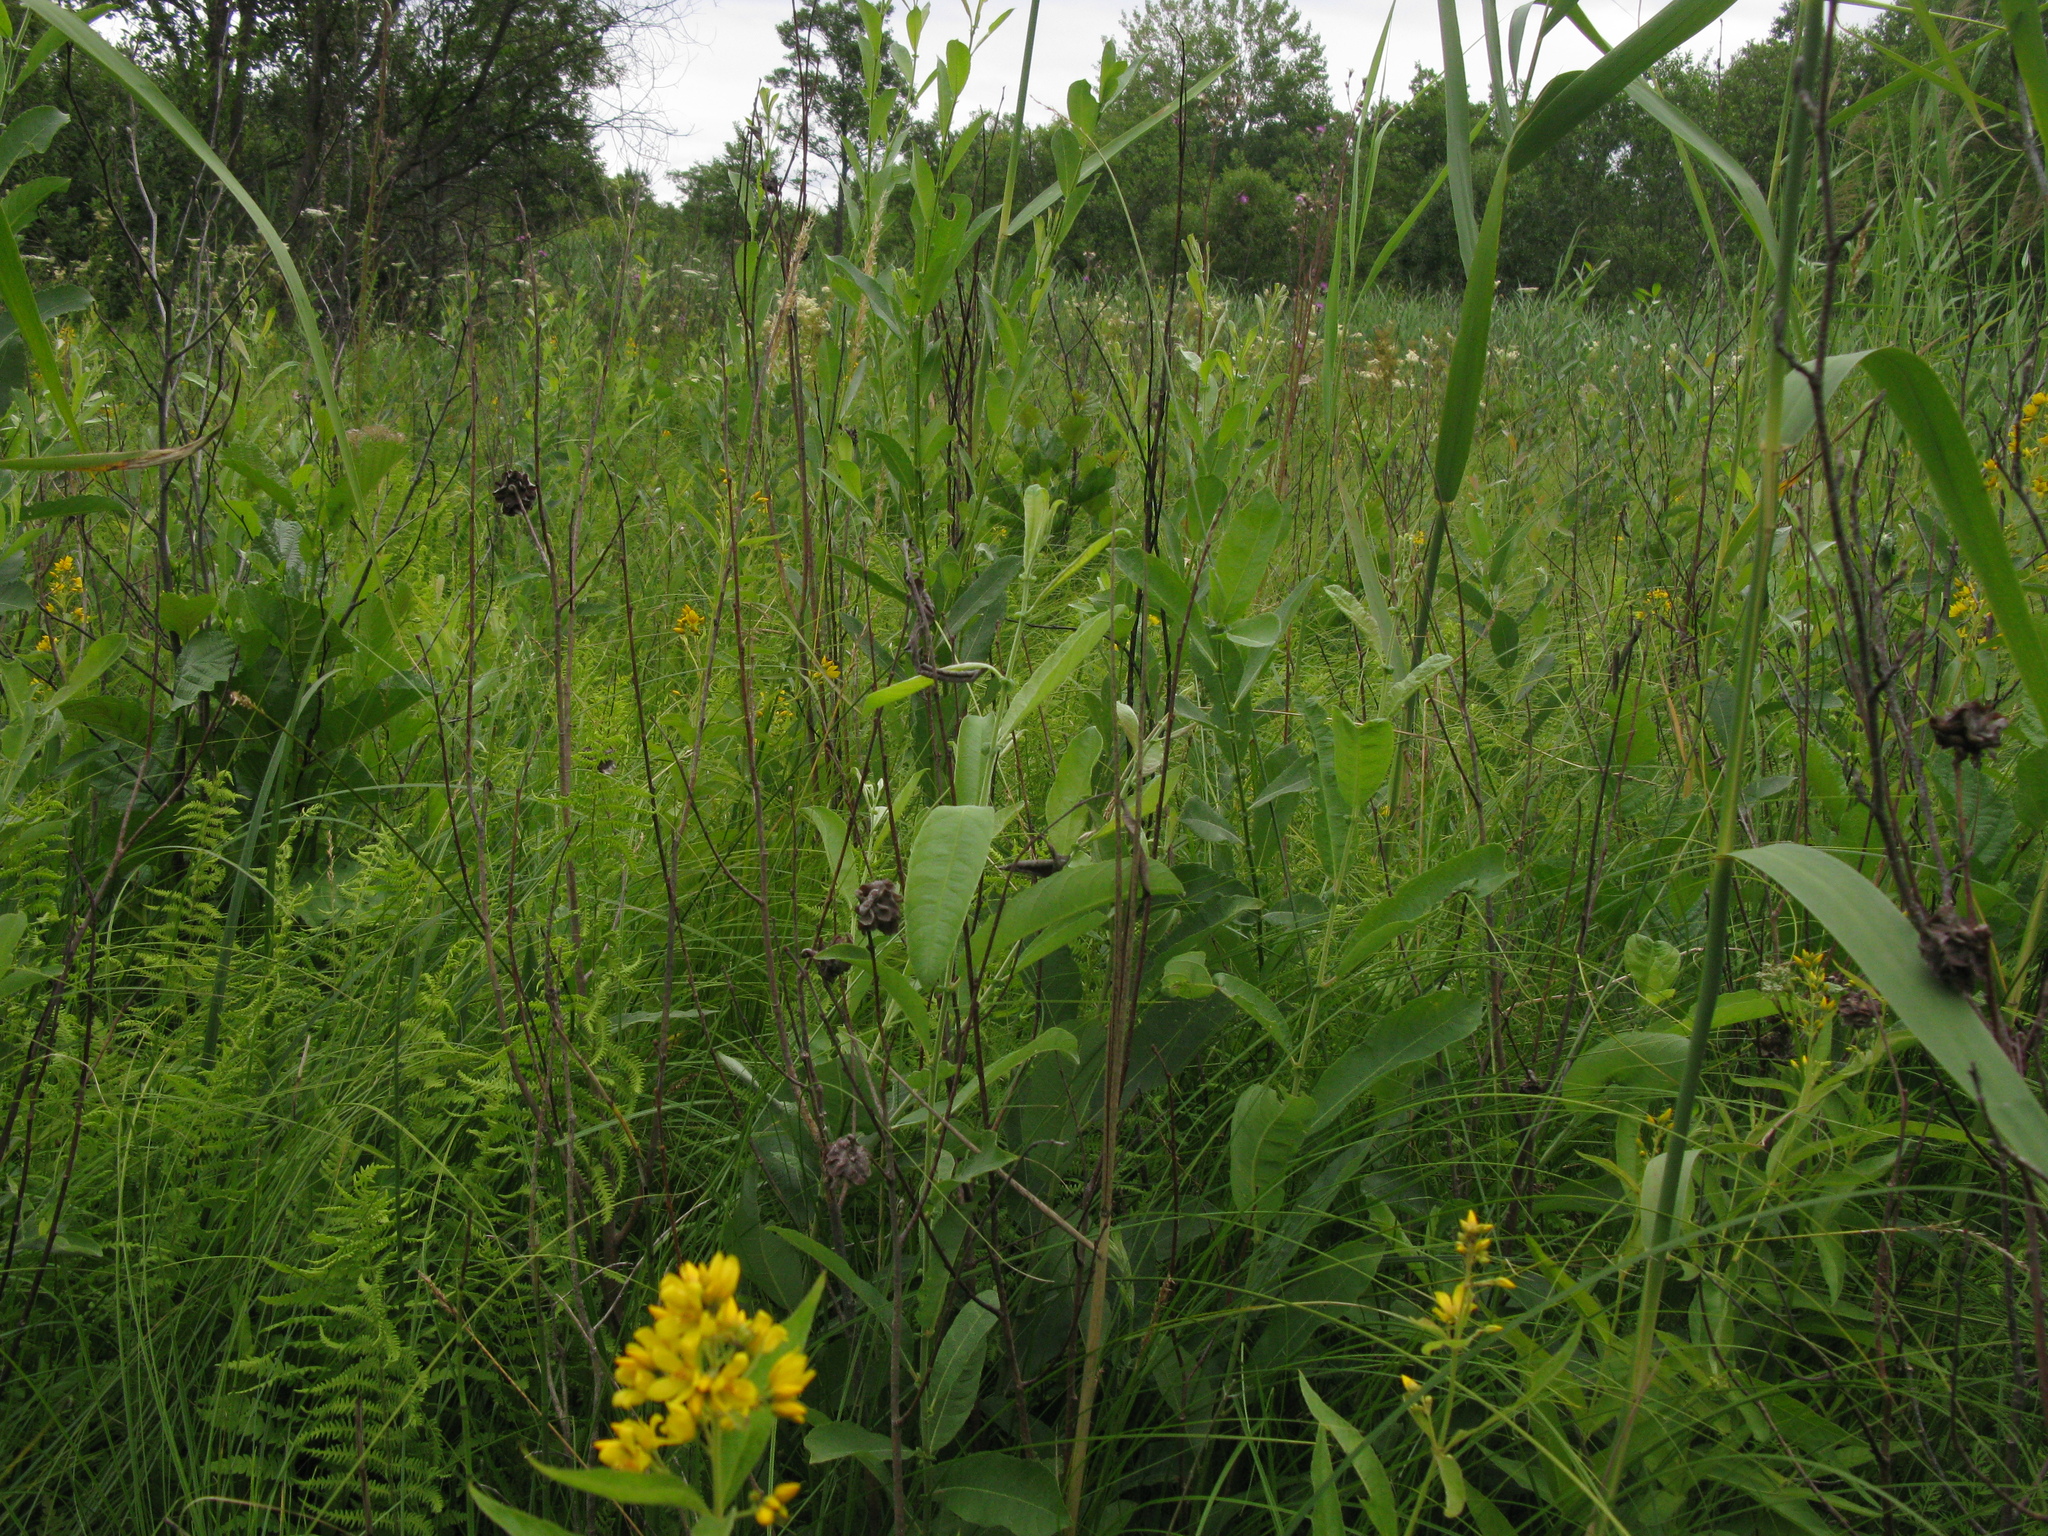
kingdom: Plantae
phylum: Tracheophyta
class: Magnoliopsida
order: Ericales
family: Primulaceae
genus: Lysimachia
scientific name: Lysimachia vulgaris
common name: Yellow loosestrife
